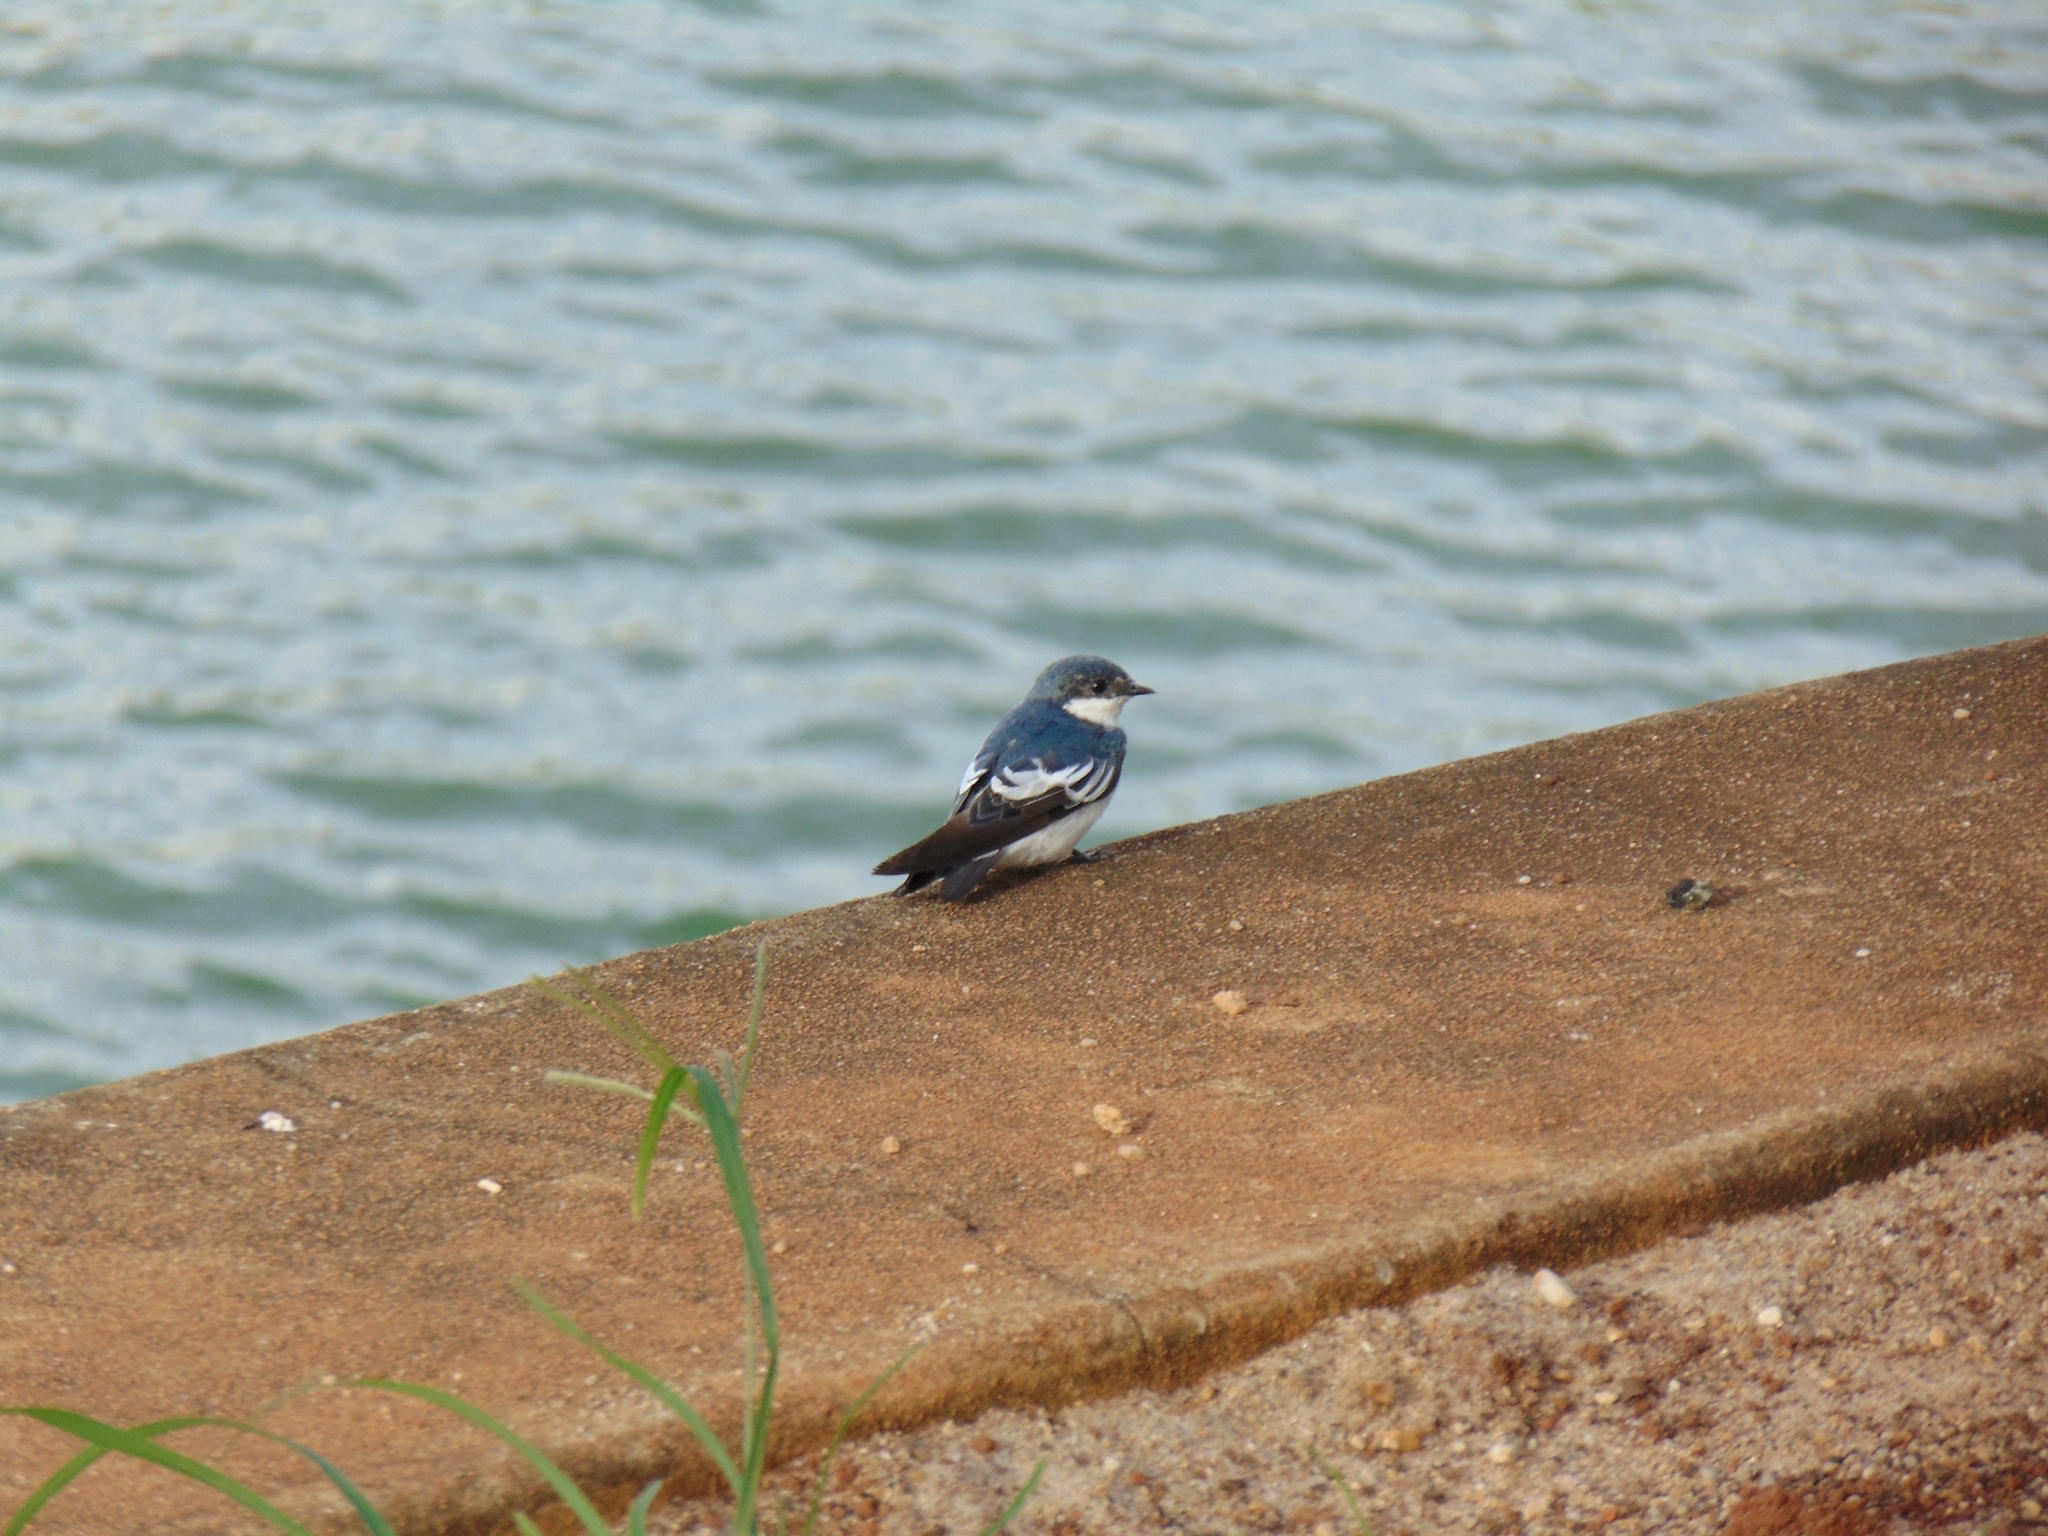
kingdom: Animalia
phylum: Chordata
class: Aves
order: Passeriformes
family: Hirundinidae
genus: Tachycineta
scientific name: Tachycineta albiventer
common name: White-winged swallow
